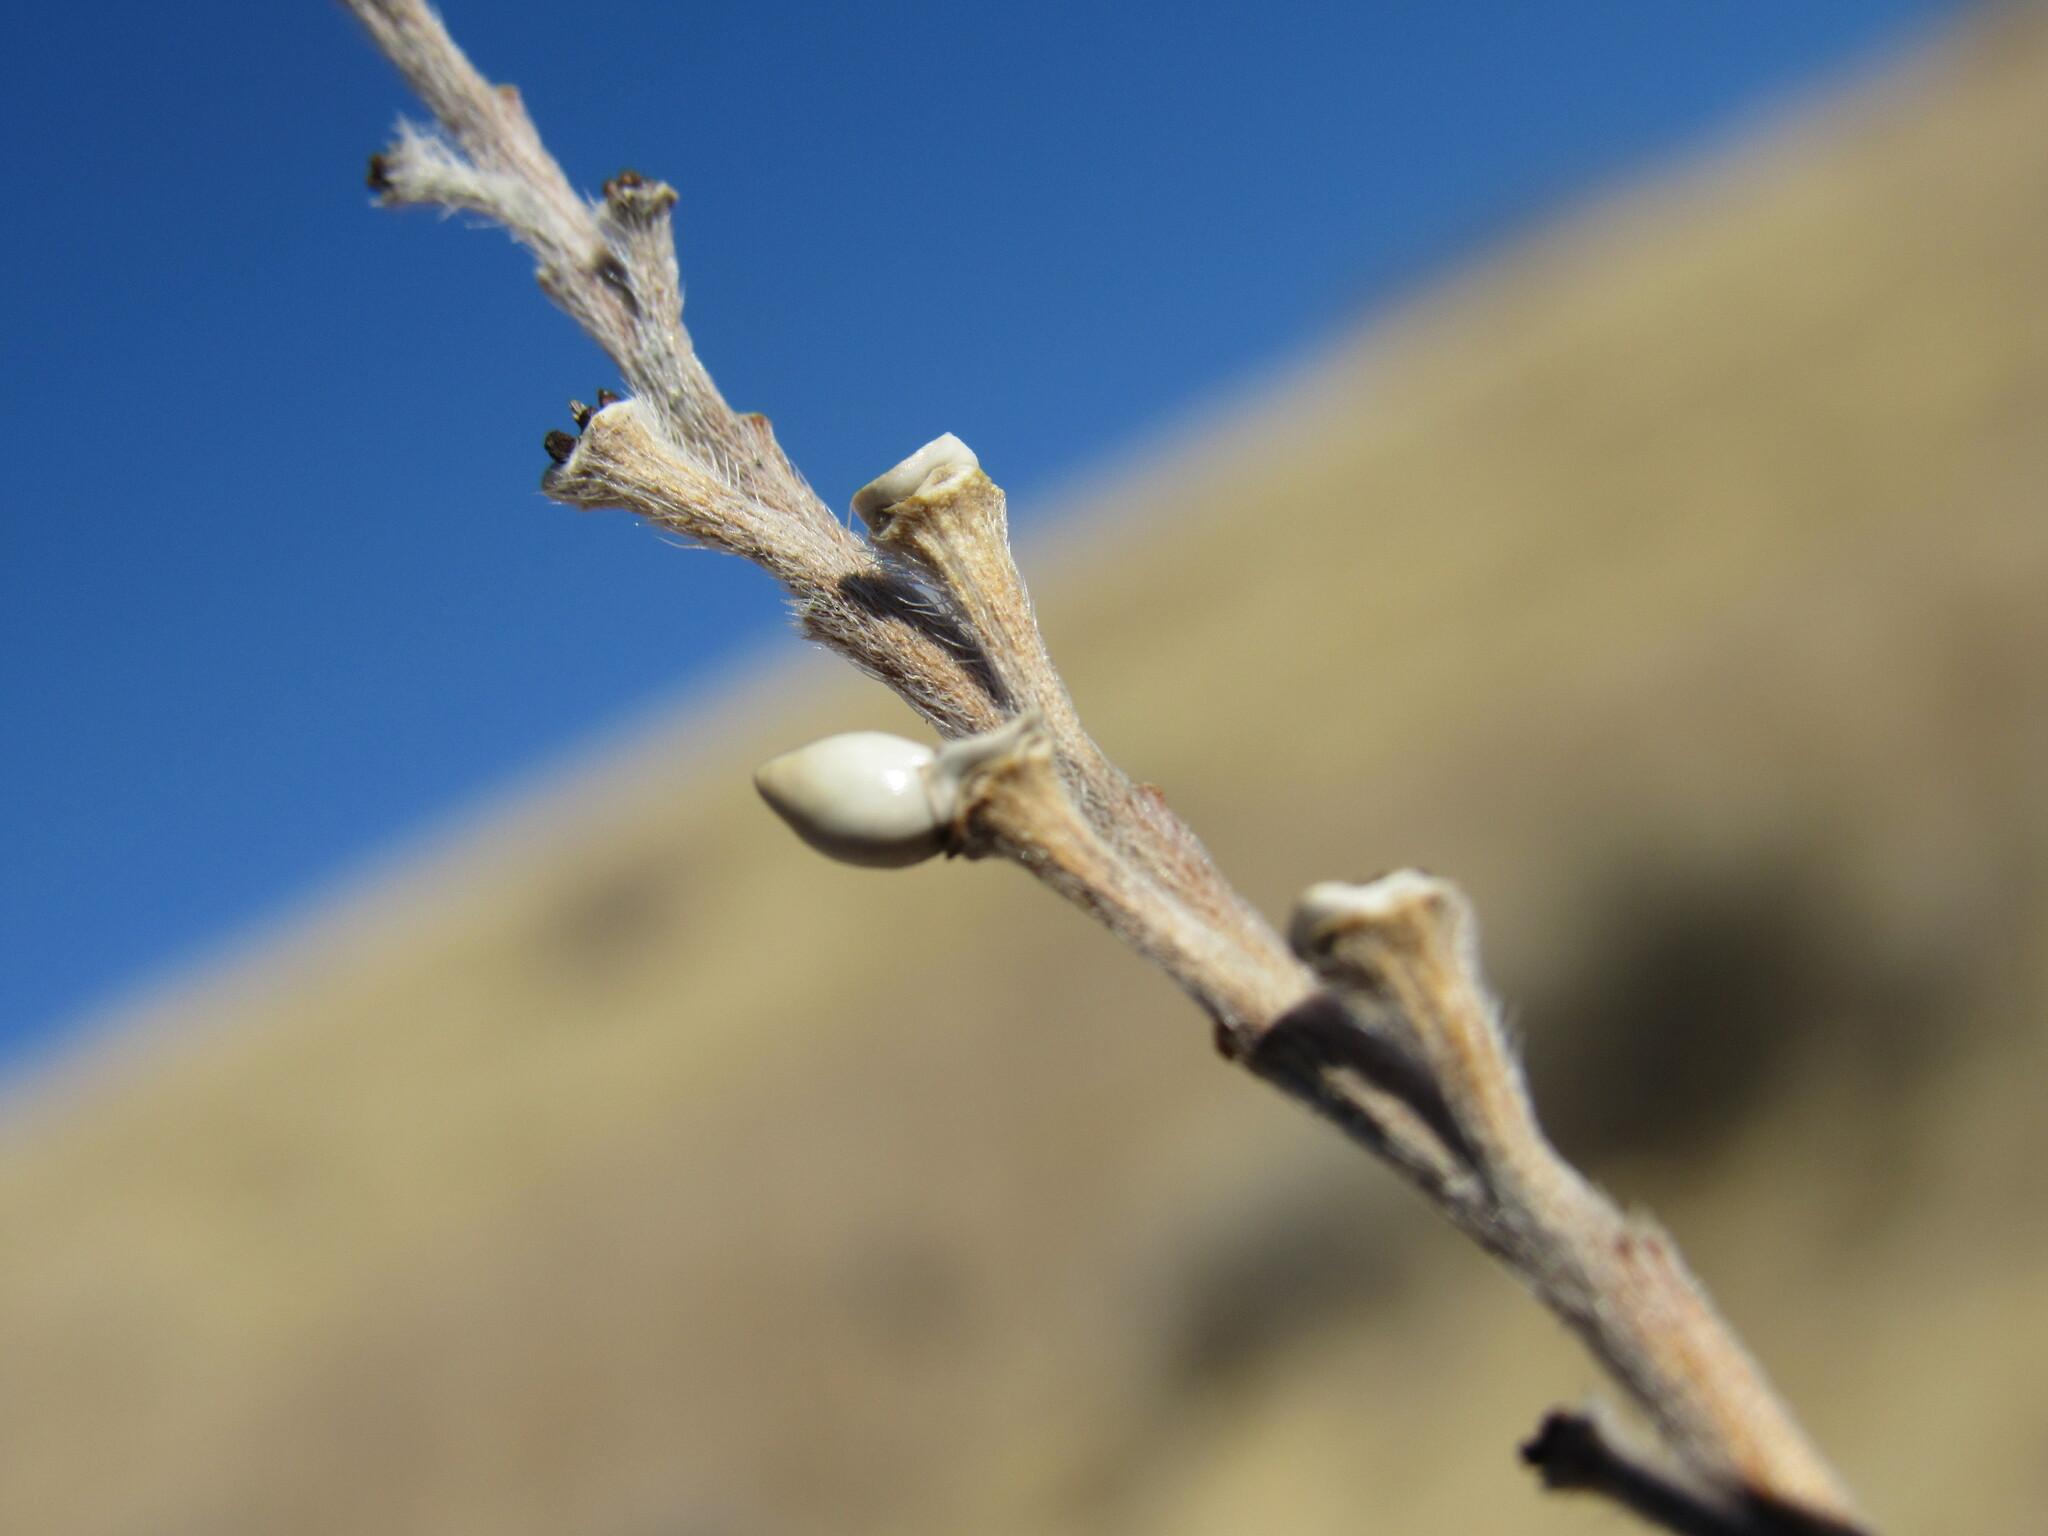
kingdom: Plantae
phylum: Tracheophyta
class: Magnoliopsida
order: Boraginales
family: Boraginaceae
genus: Lithospermum
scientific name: Lithospermum occidentale
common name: Western false gromwell
